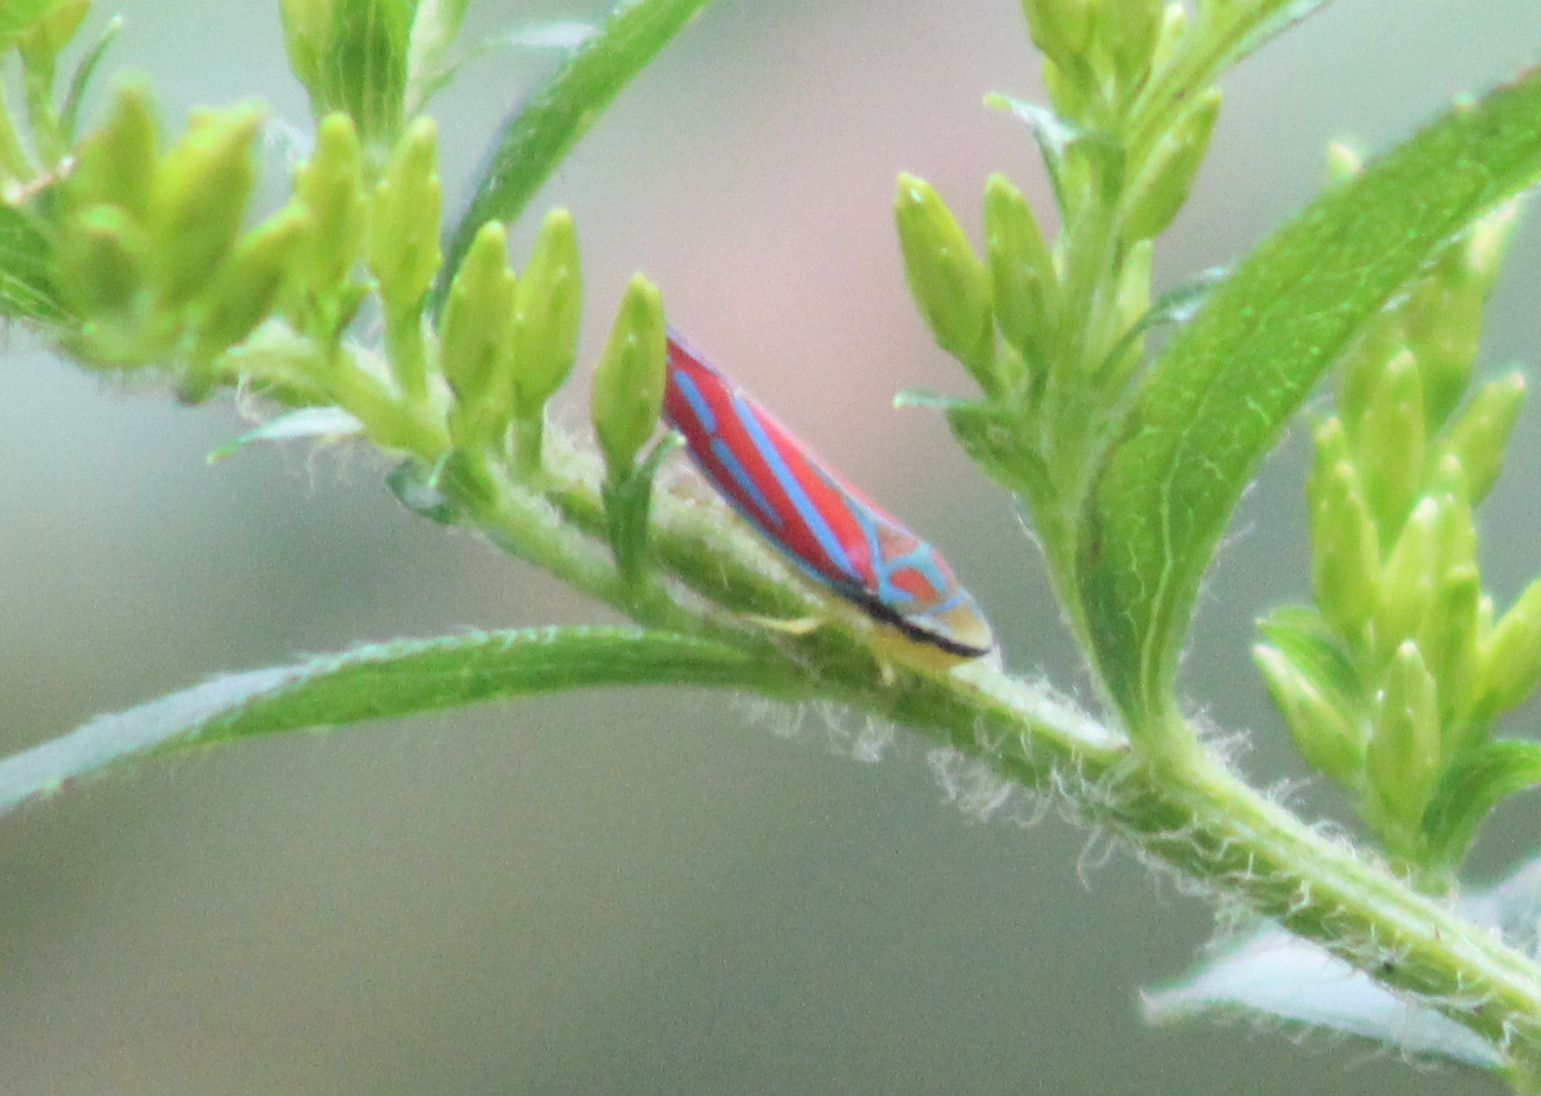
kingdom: Animalia
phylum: Arthropoda
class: Insecta
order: Hemiptera
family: Cicadellidae
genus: Graphocephala
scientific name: Graphocephala coccinea
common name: Candy-striped leafhopper
